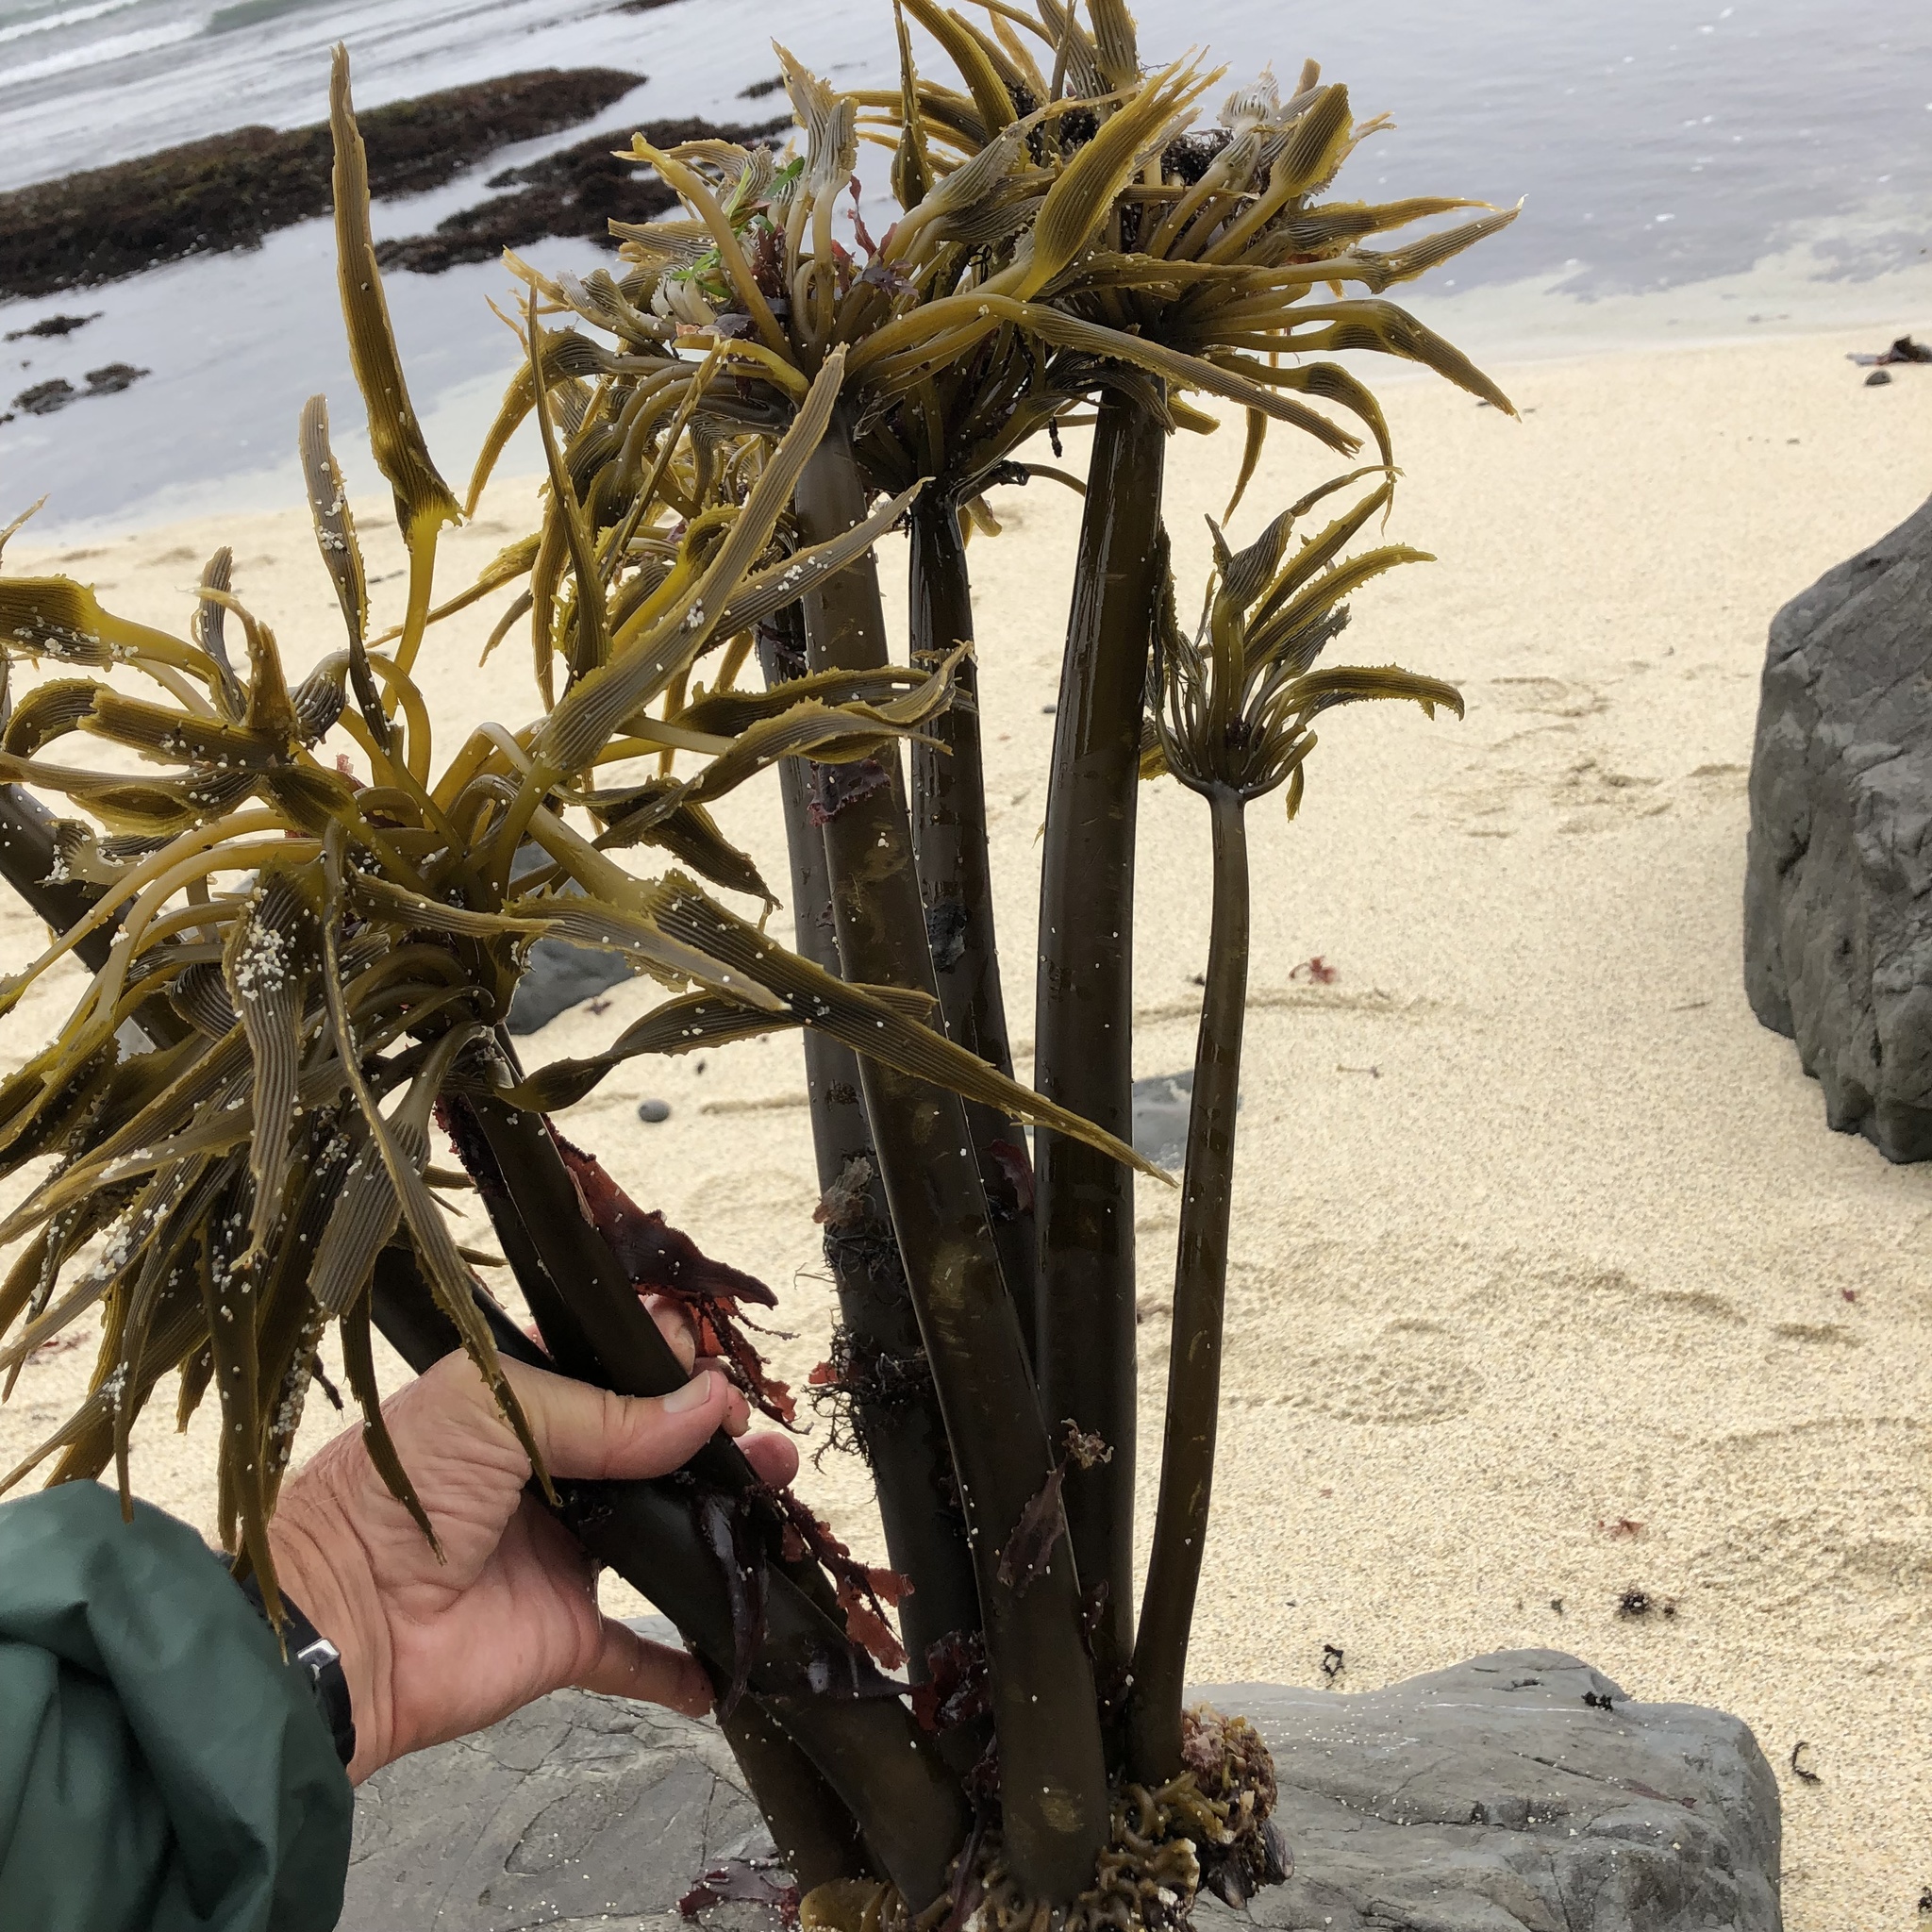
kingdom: Chromista
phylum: Ochrophyta
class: Phaeophyceae
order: Laminariales
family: Laminariaceae
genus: Postelsia
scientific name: Postelsia palmiformis
